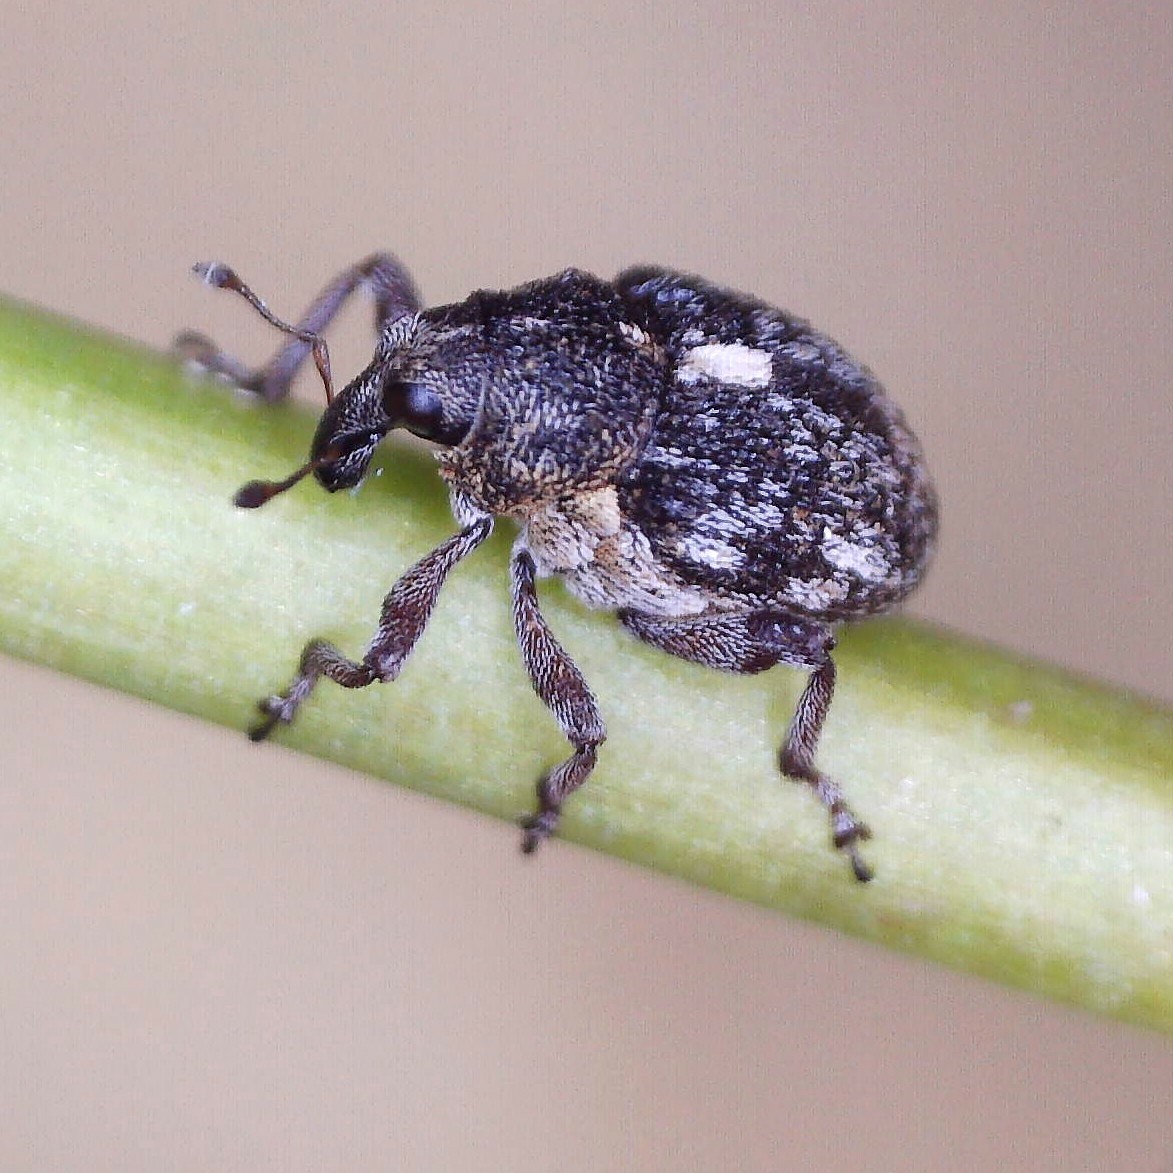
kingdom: Animalia
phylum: Arthropoda
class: Insecta
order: Coleoptera
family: Curculionidae
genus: Rhinoncus
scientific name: Rhinoncus pericarpius
